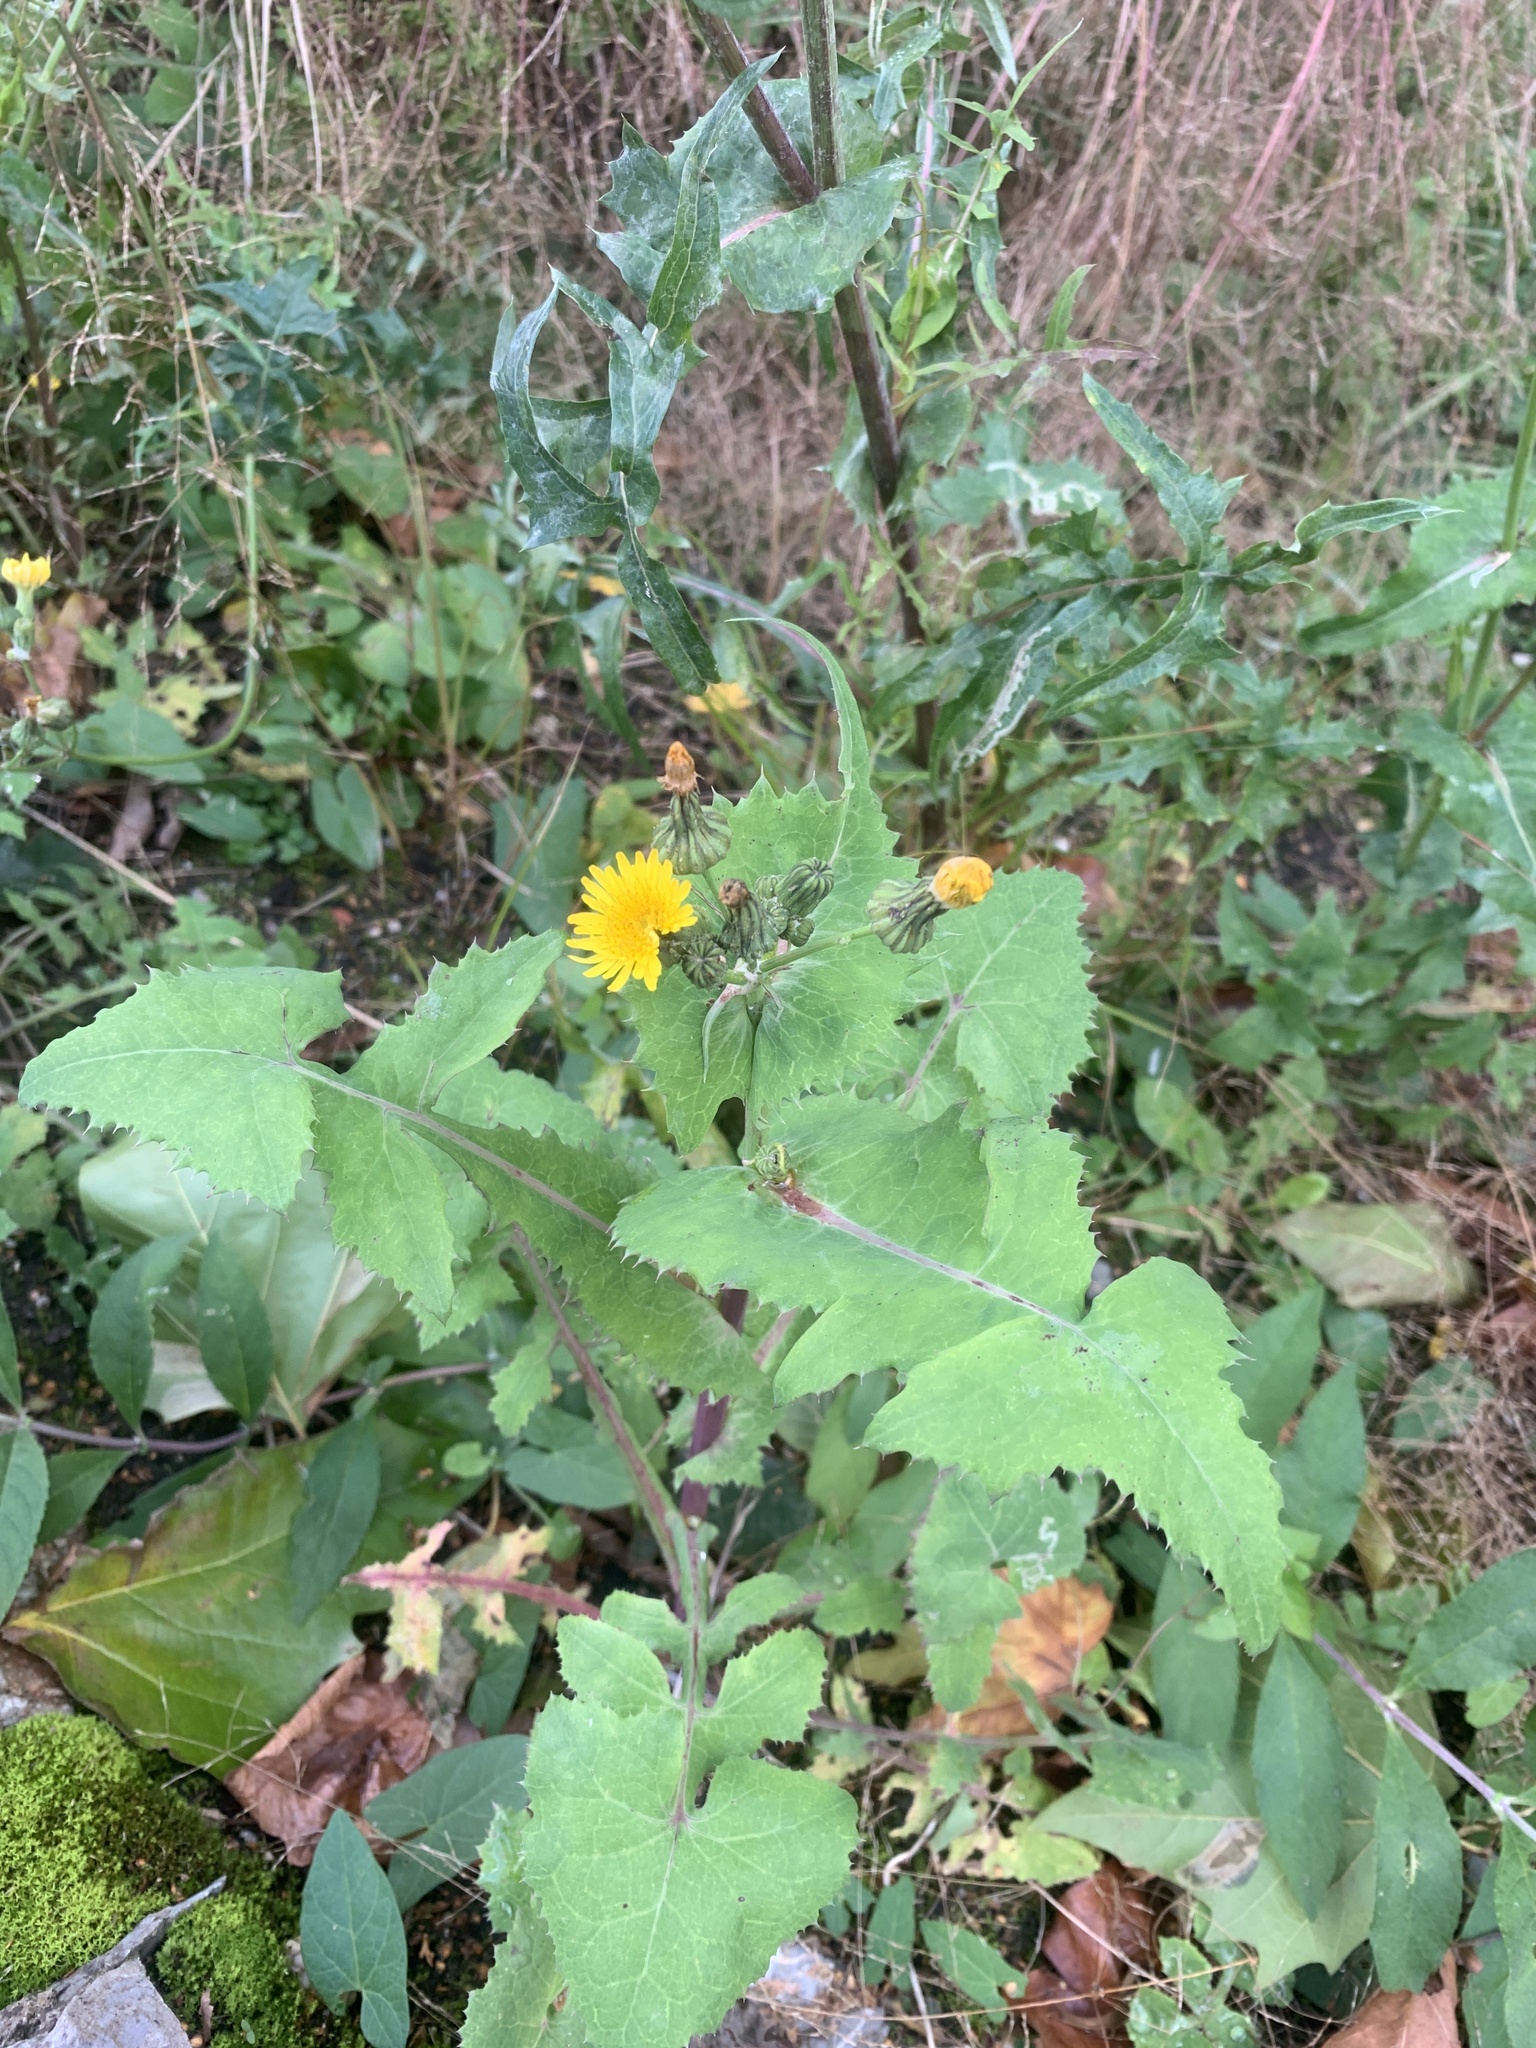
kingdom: Plantae
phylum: Tracheophyta
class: Magnoliopsida
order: Asterales
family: Asteraceae
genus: Sonchus
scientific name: Sonchus oleraceus
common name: Common sowthistle
